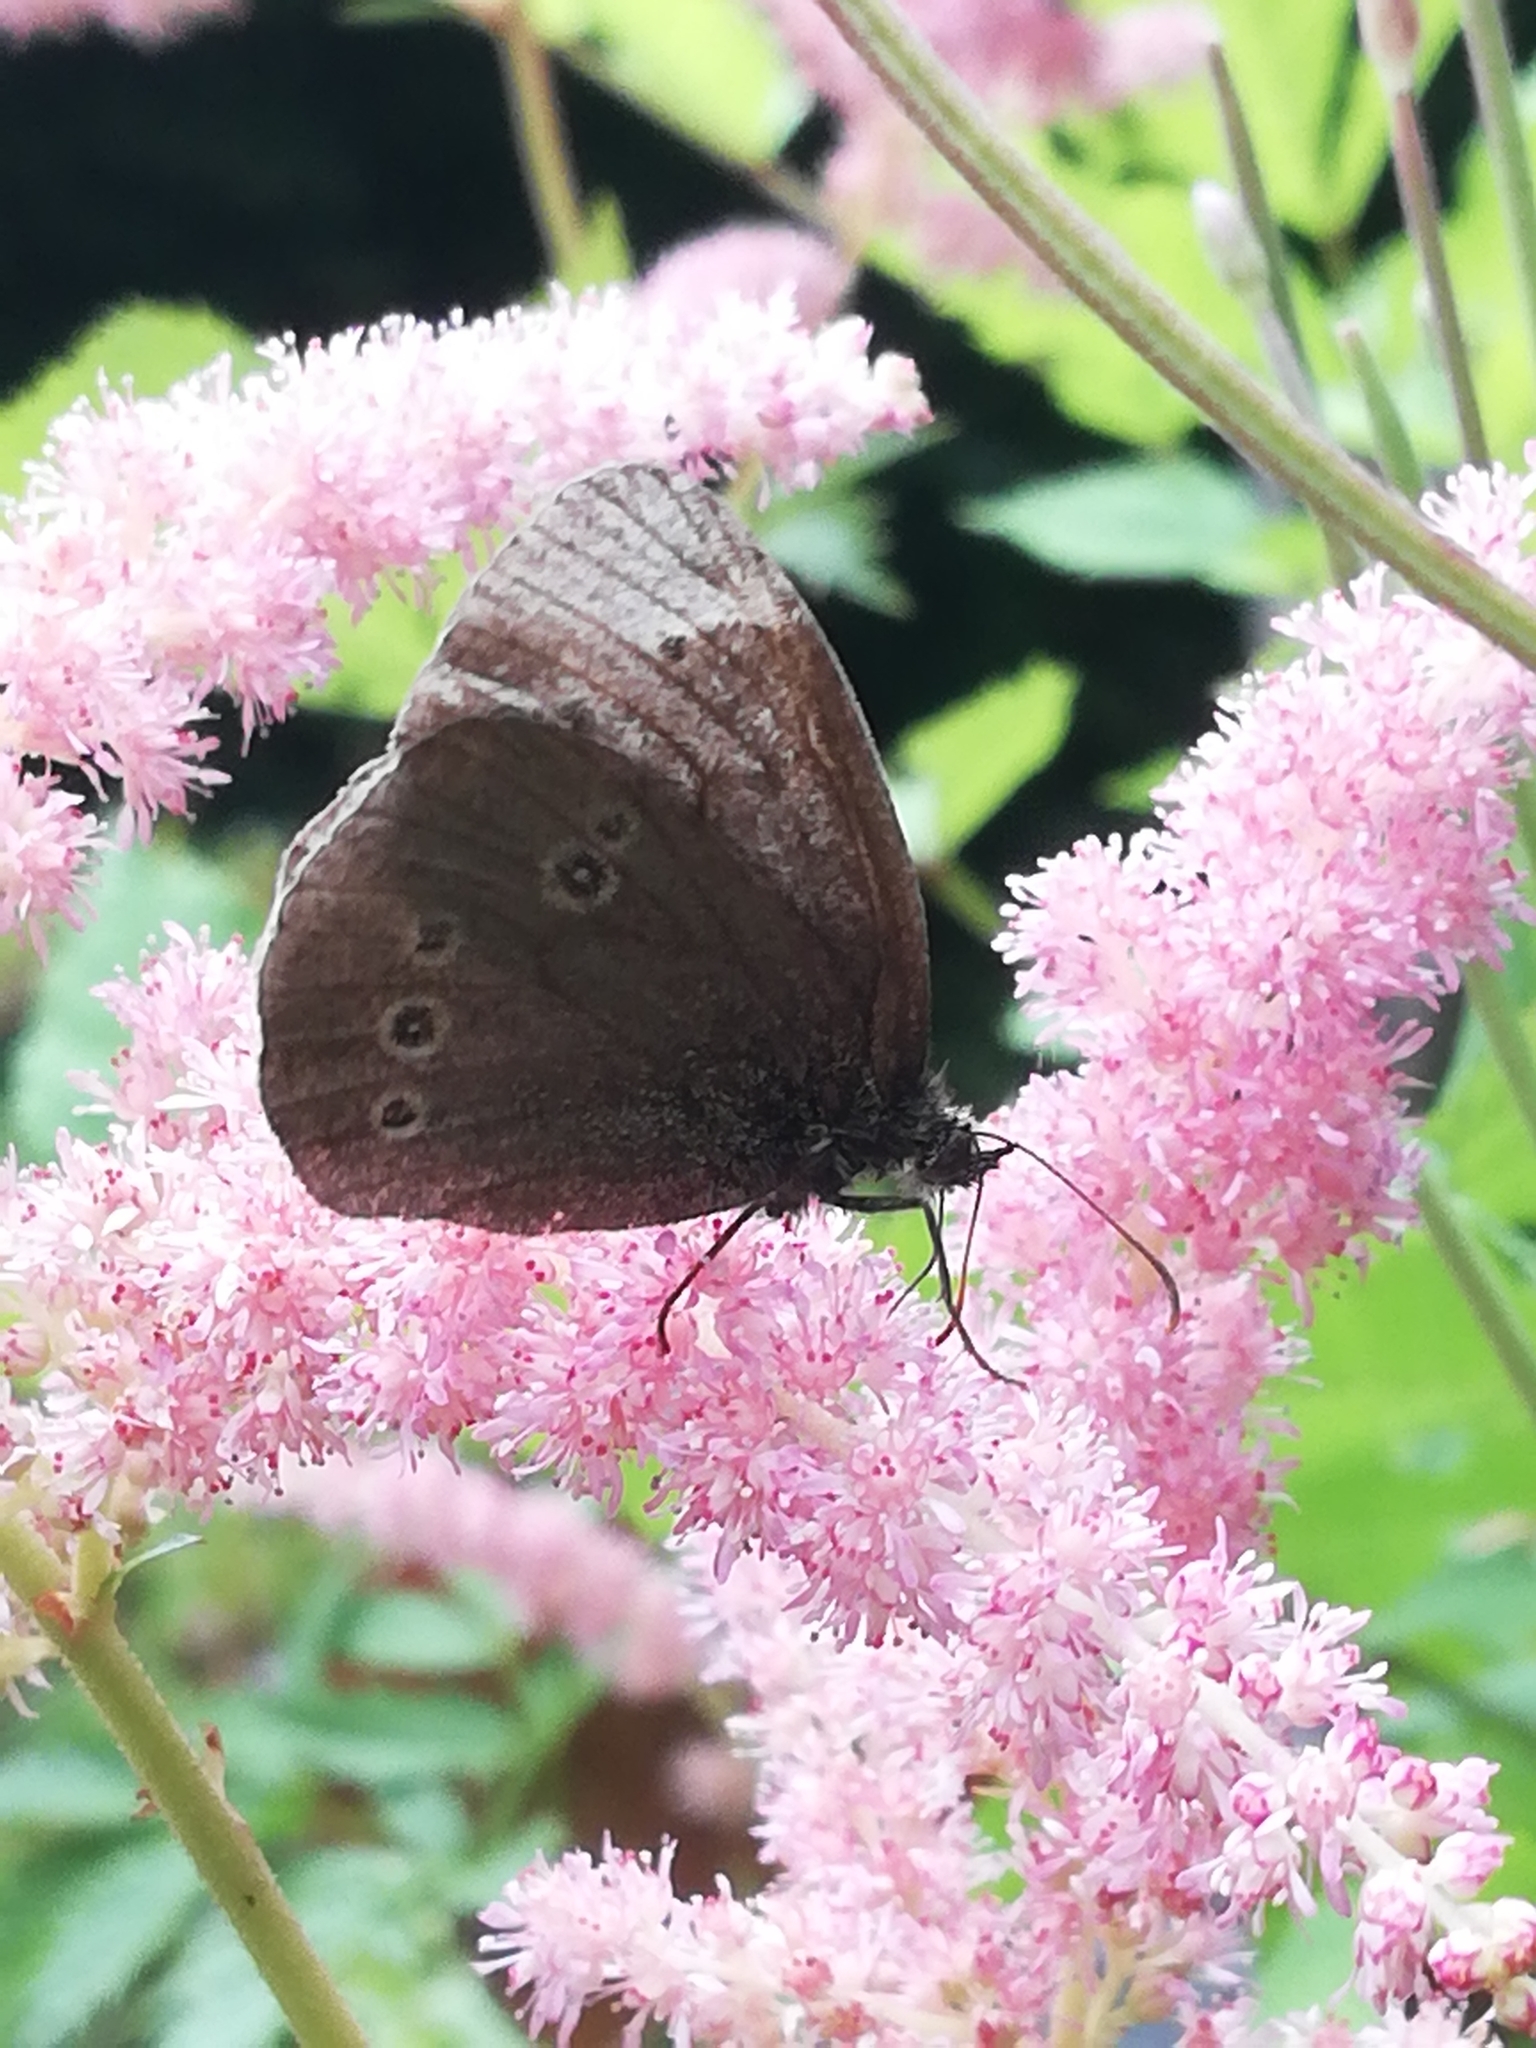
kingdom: Animalia
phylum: Arthropoda
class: Insecta
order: Lepidoptera
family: Nymphalidae
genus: Aphantopus
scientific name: Aphantopus hyperantus
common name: Ringlet
